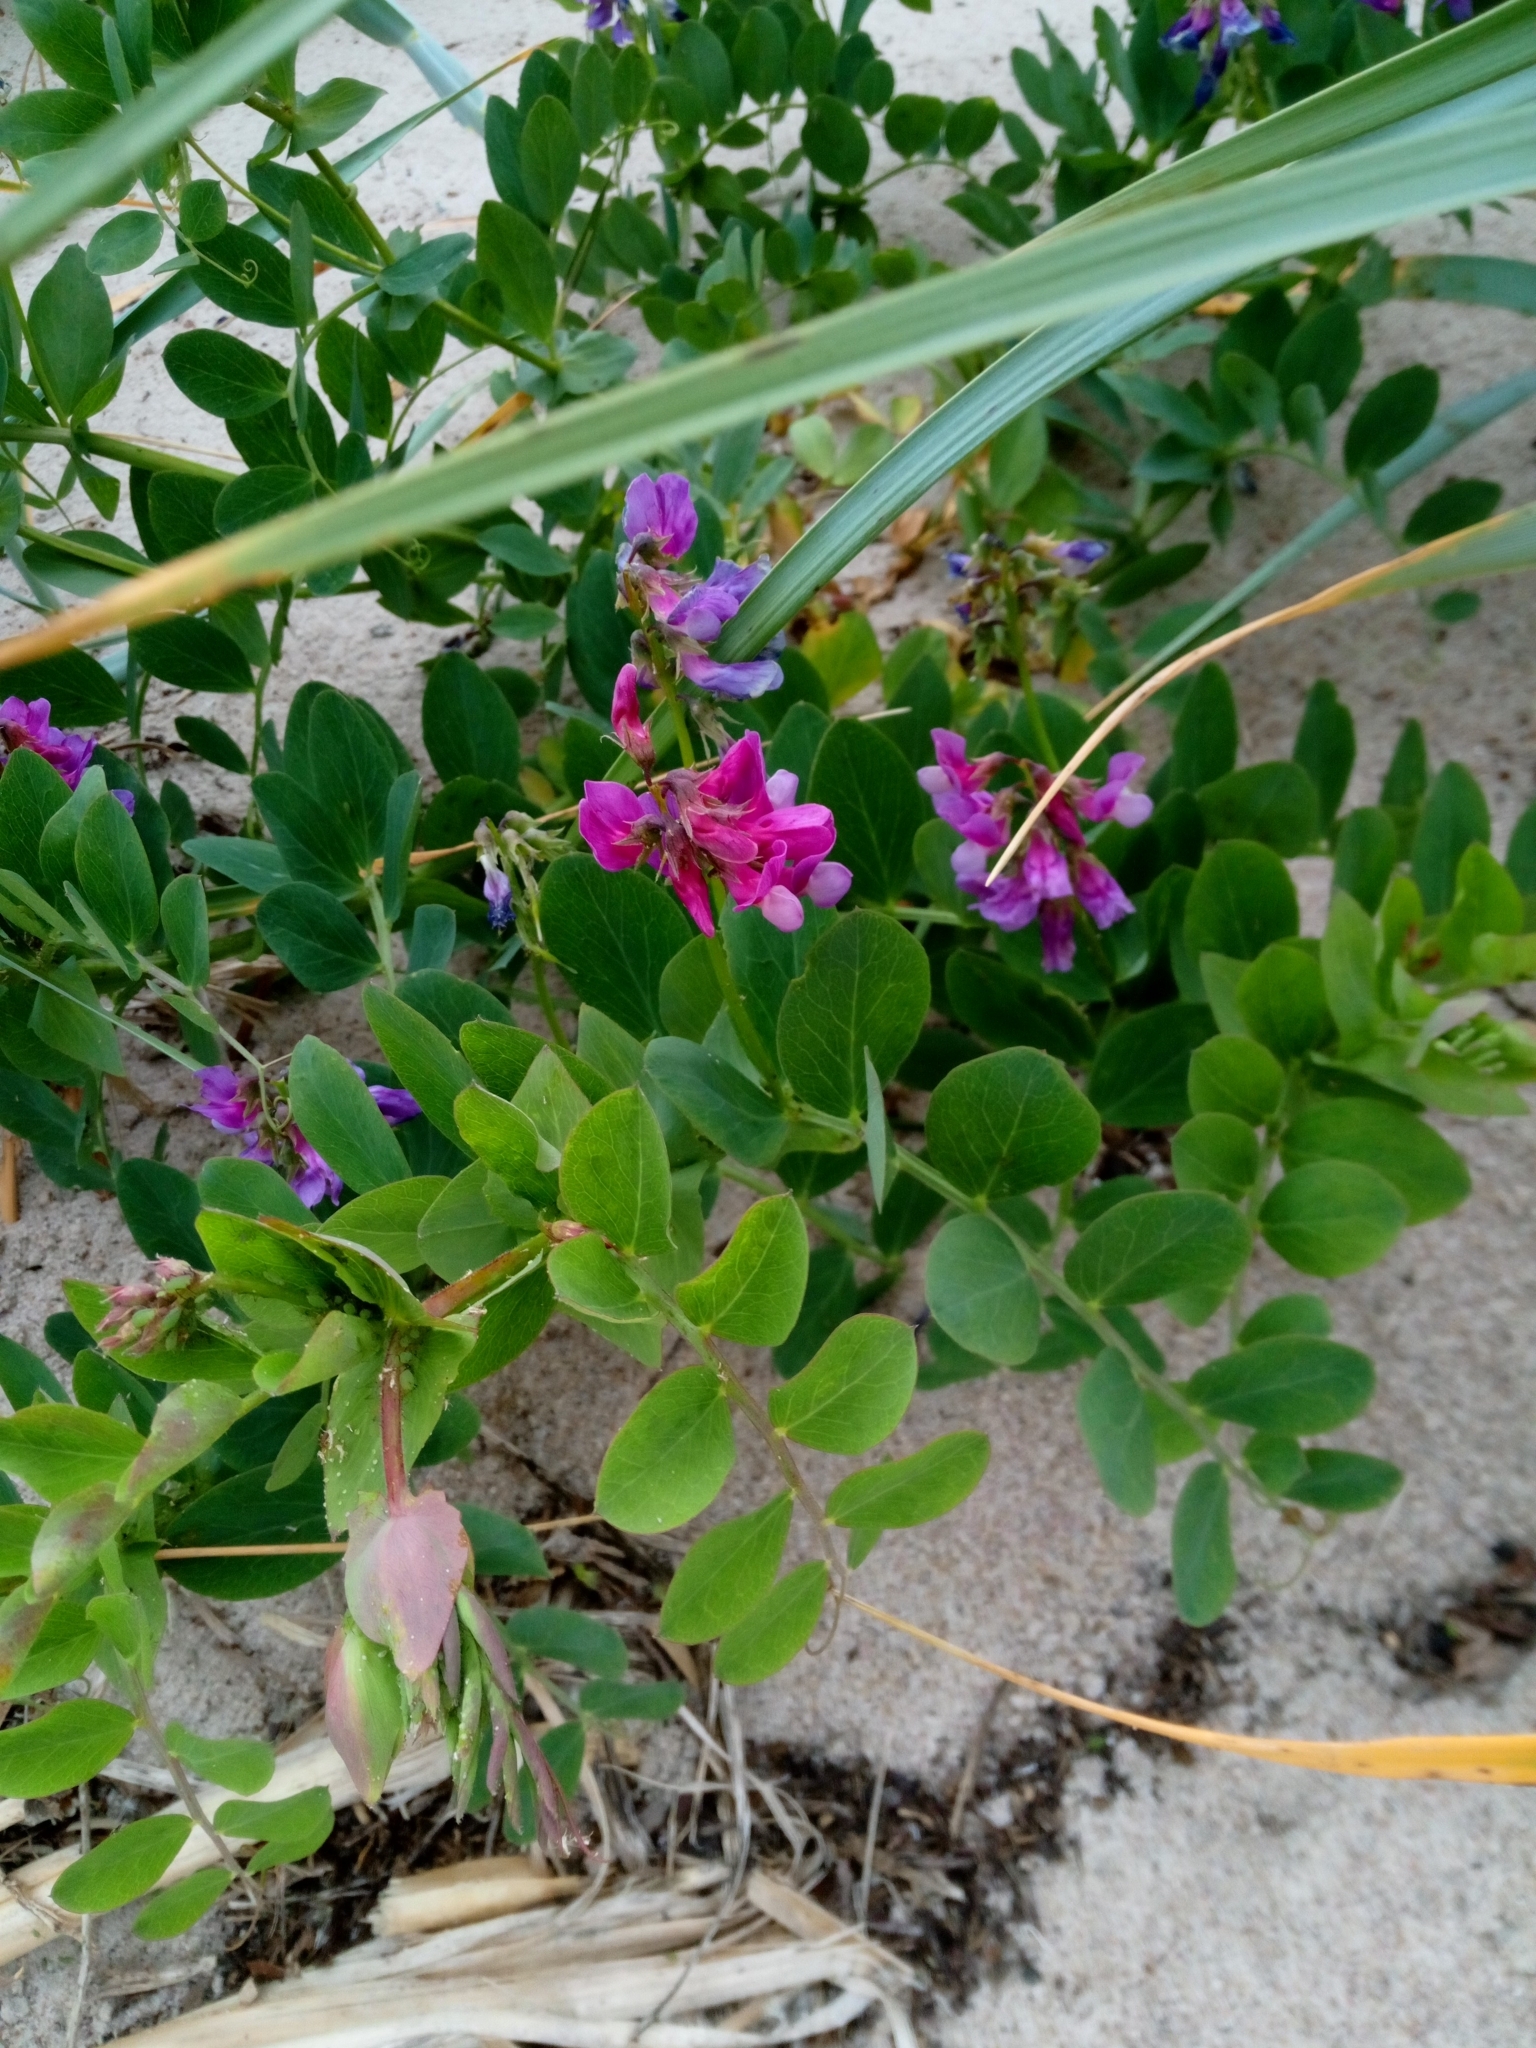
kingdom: Plantae
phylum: Tracheophyta
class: Magnoliopsida
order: Fabales
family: Fabaceae
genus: Lathyrus
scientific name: Lathyrus japonicus
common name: Sea pea
